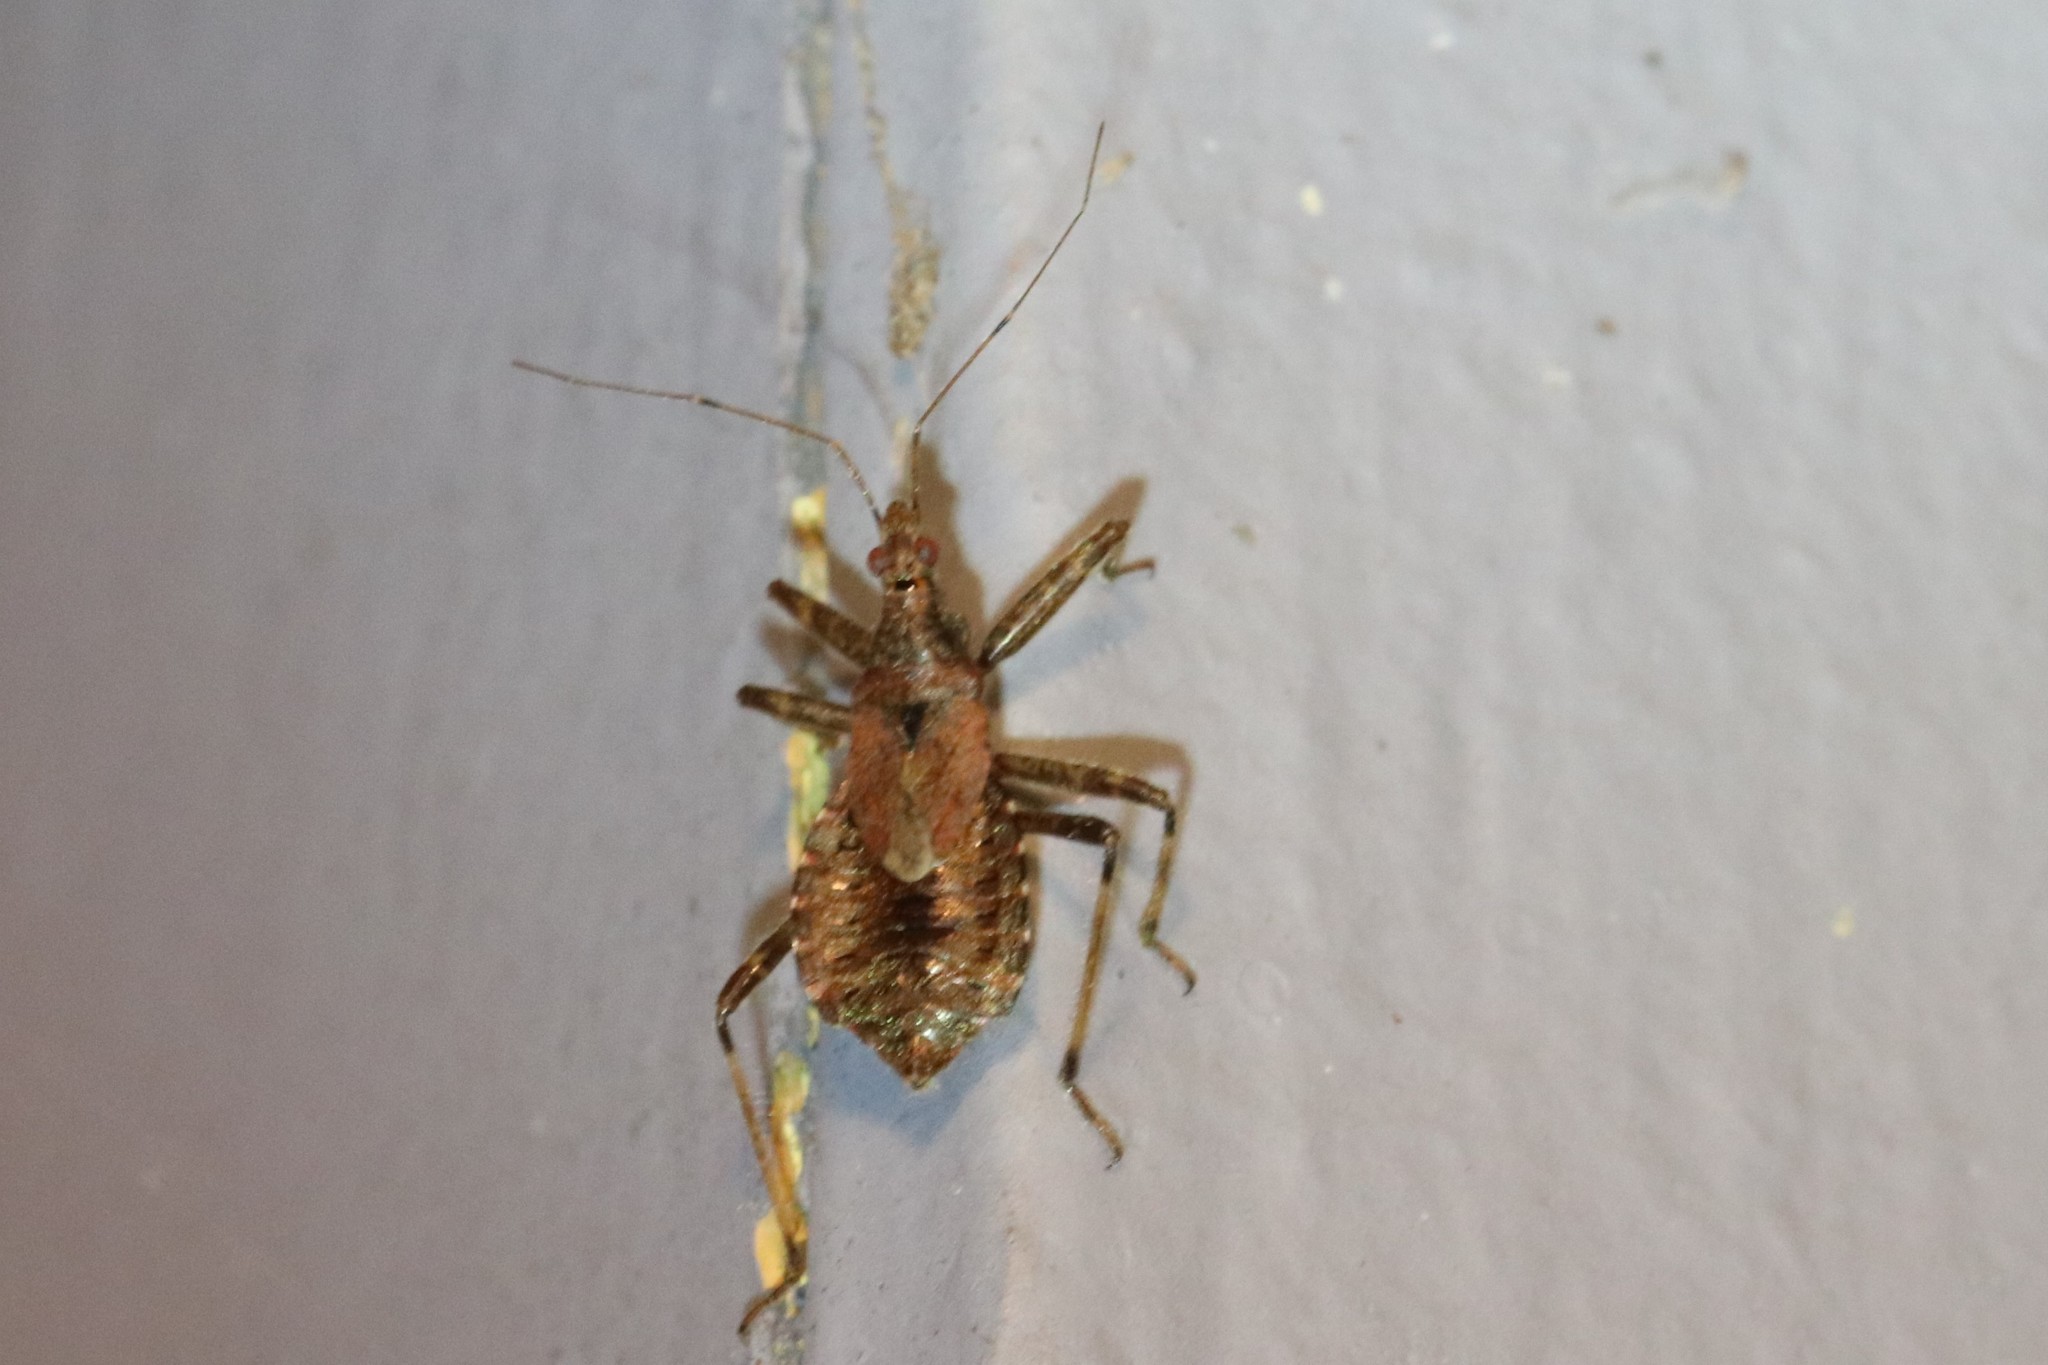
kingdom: Animalia
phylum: Arthropoda
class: Insecta
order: Hemiptera
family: Nabidae
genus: Himacerus
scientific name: Himacerus apterus
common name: Tree damsel bug
